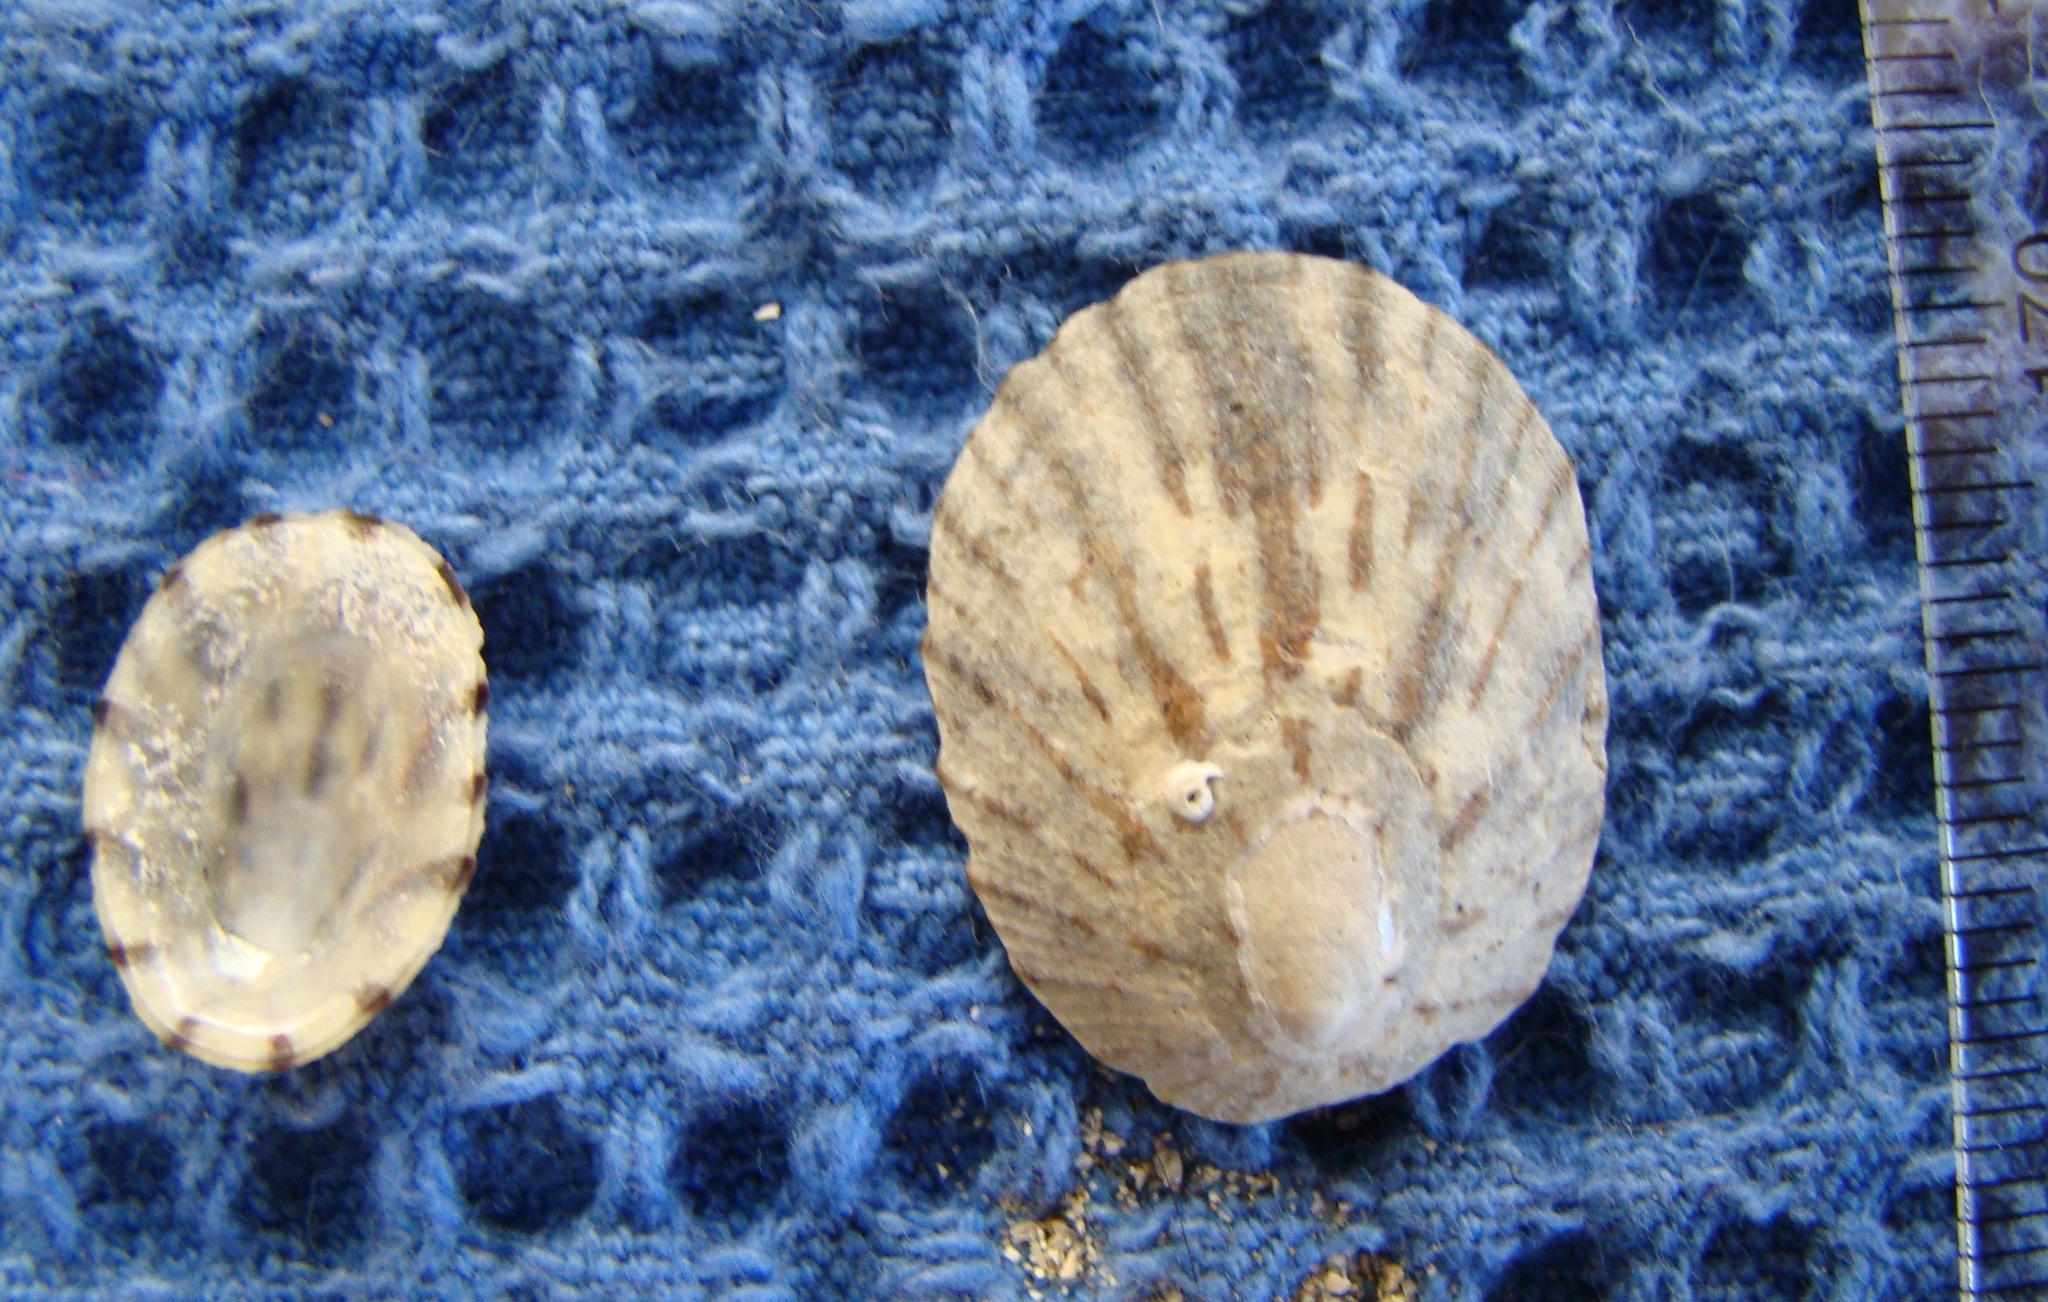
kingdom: Animalia
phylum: Mollusca
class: Gastropoda
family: Nacellidae
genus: Cellana
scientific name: Cellana radians
